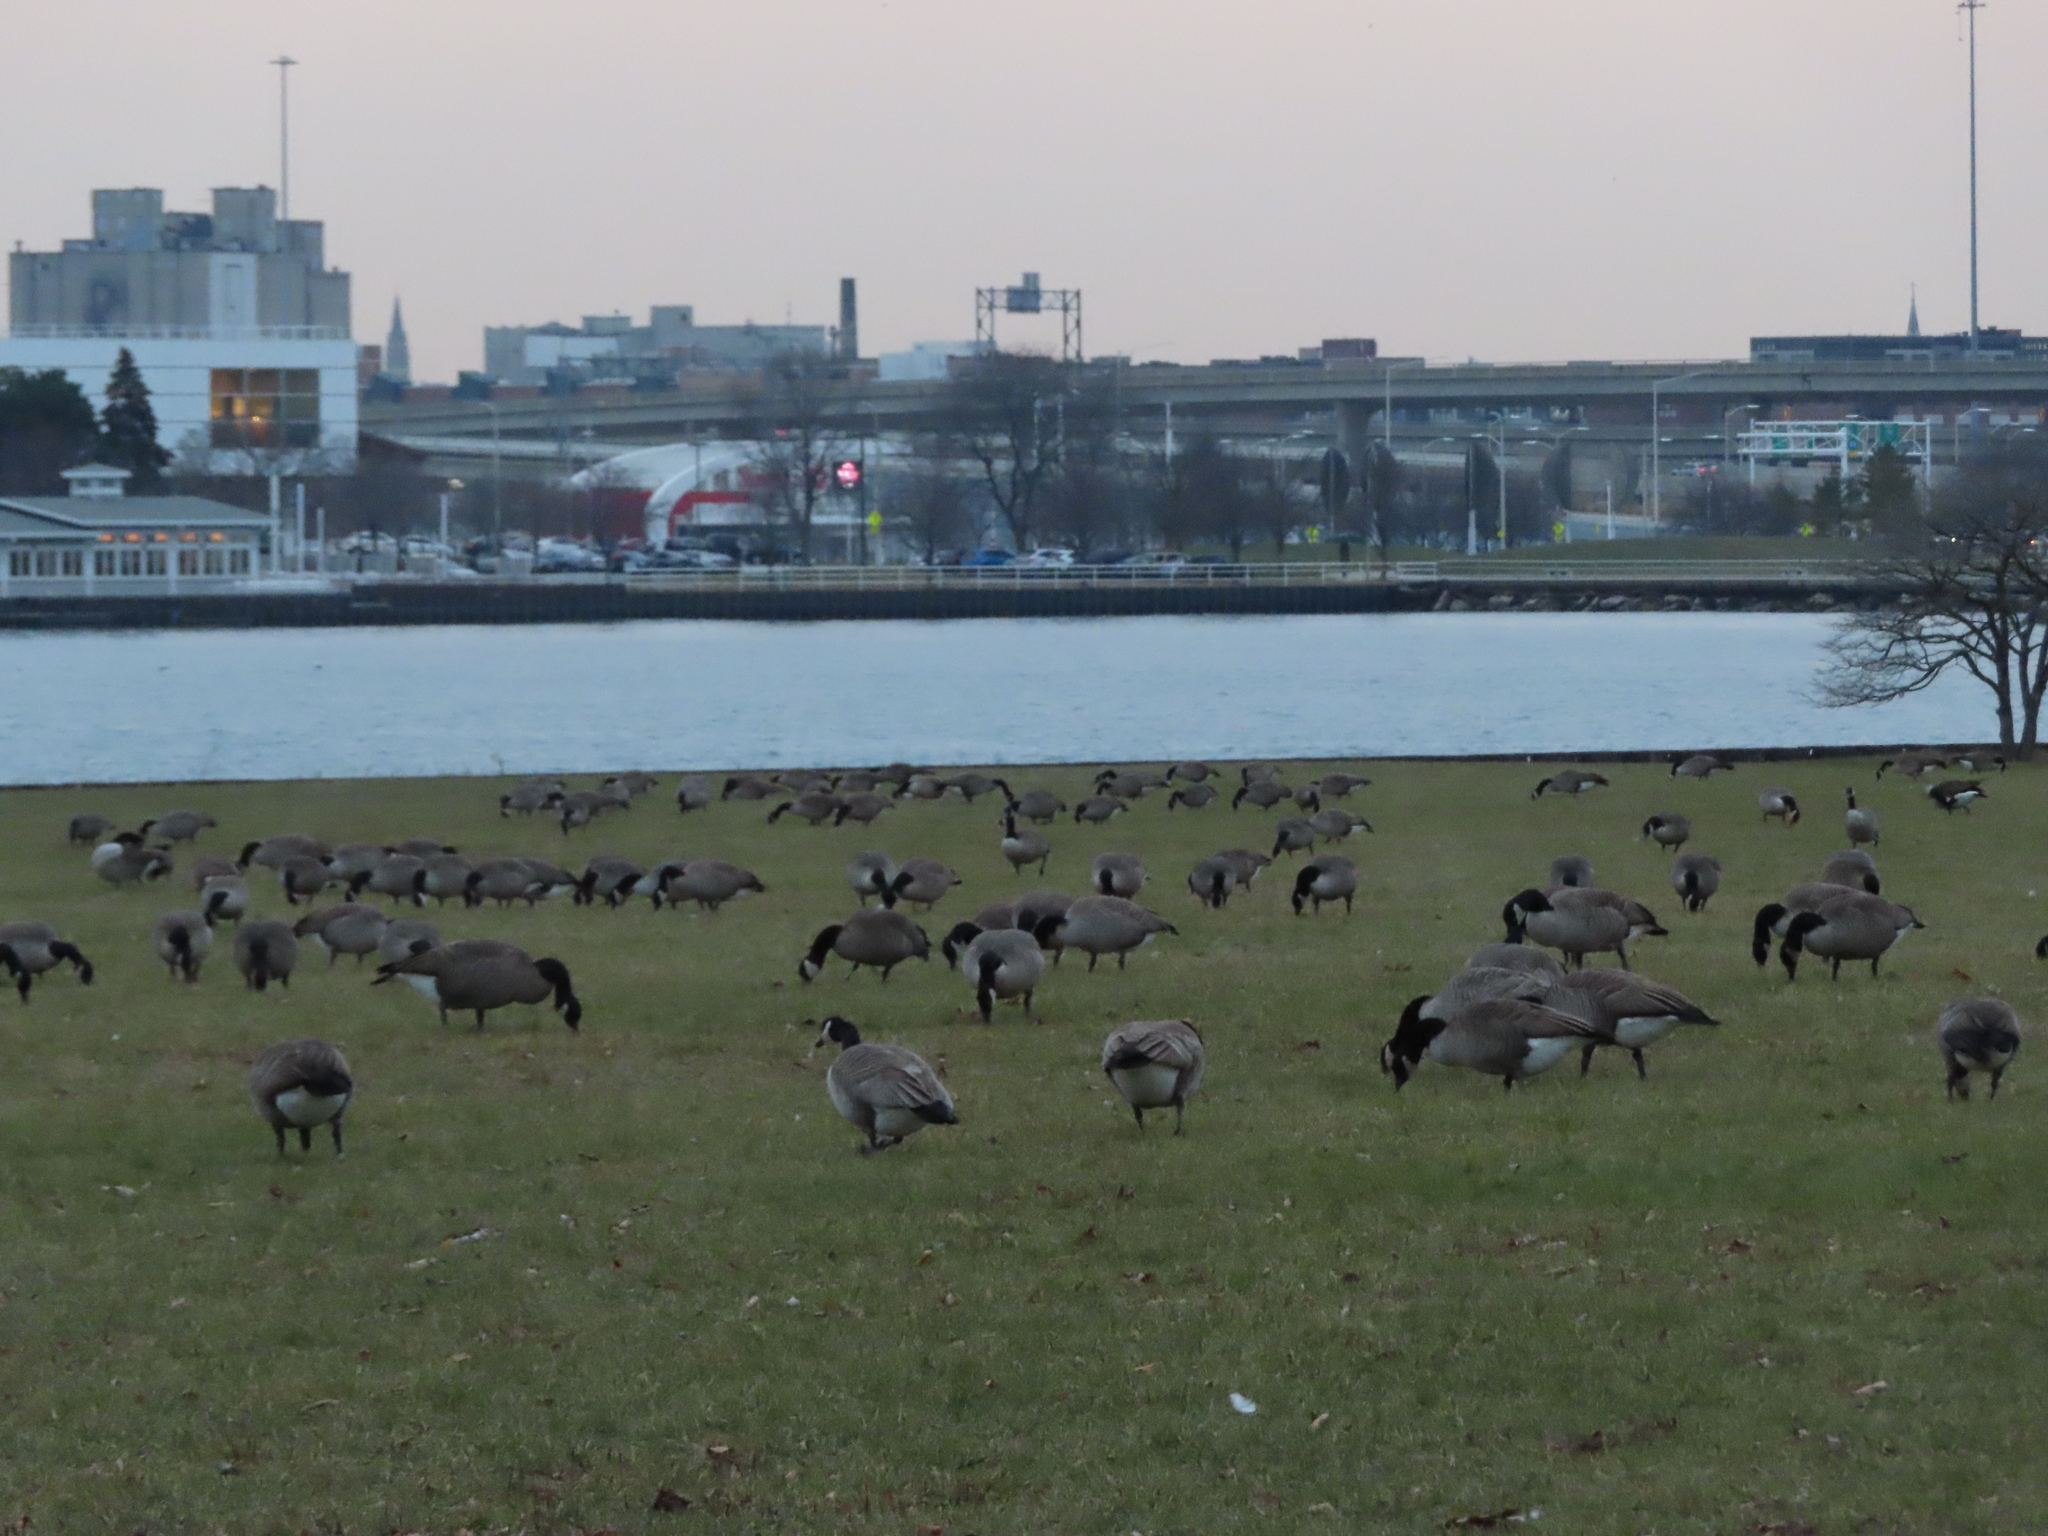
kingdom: Animalia
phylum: Chordata
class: Aves
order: Anseriformes
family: Anatidae
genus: Branta
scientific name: Branta canadensis
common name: Canada goose
